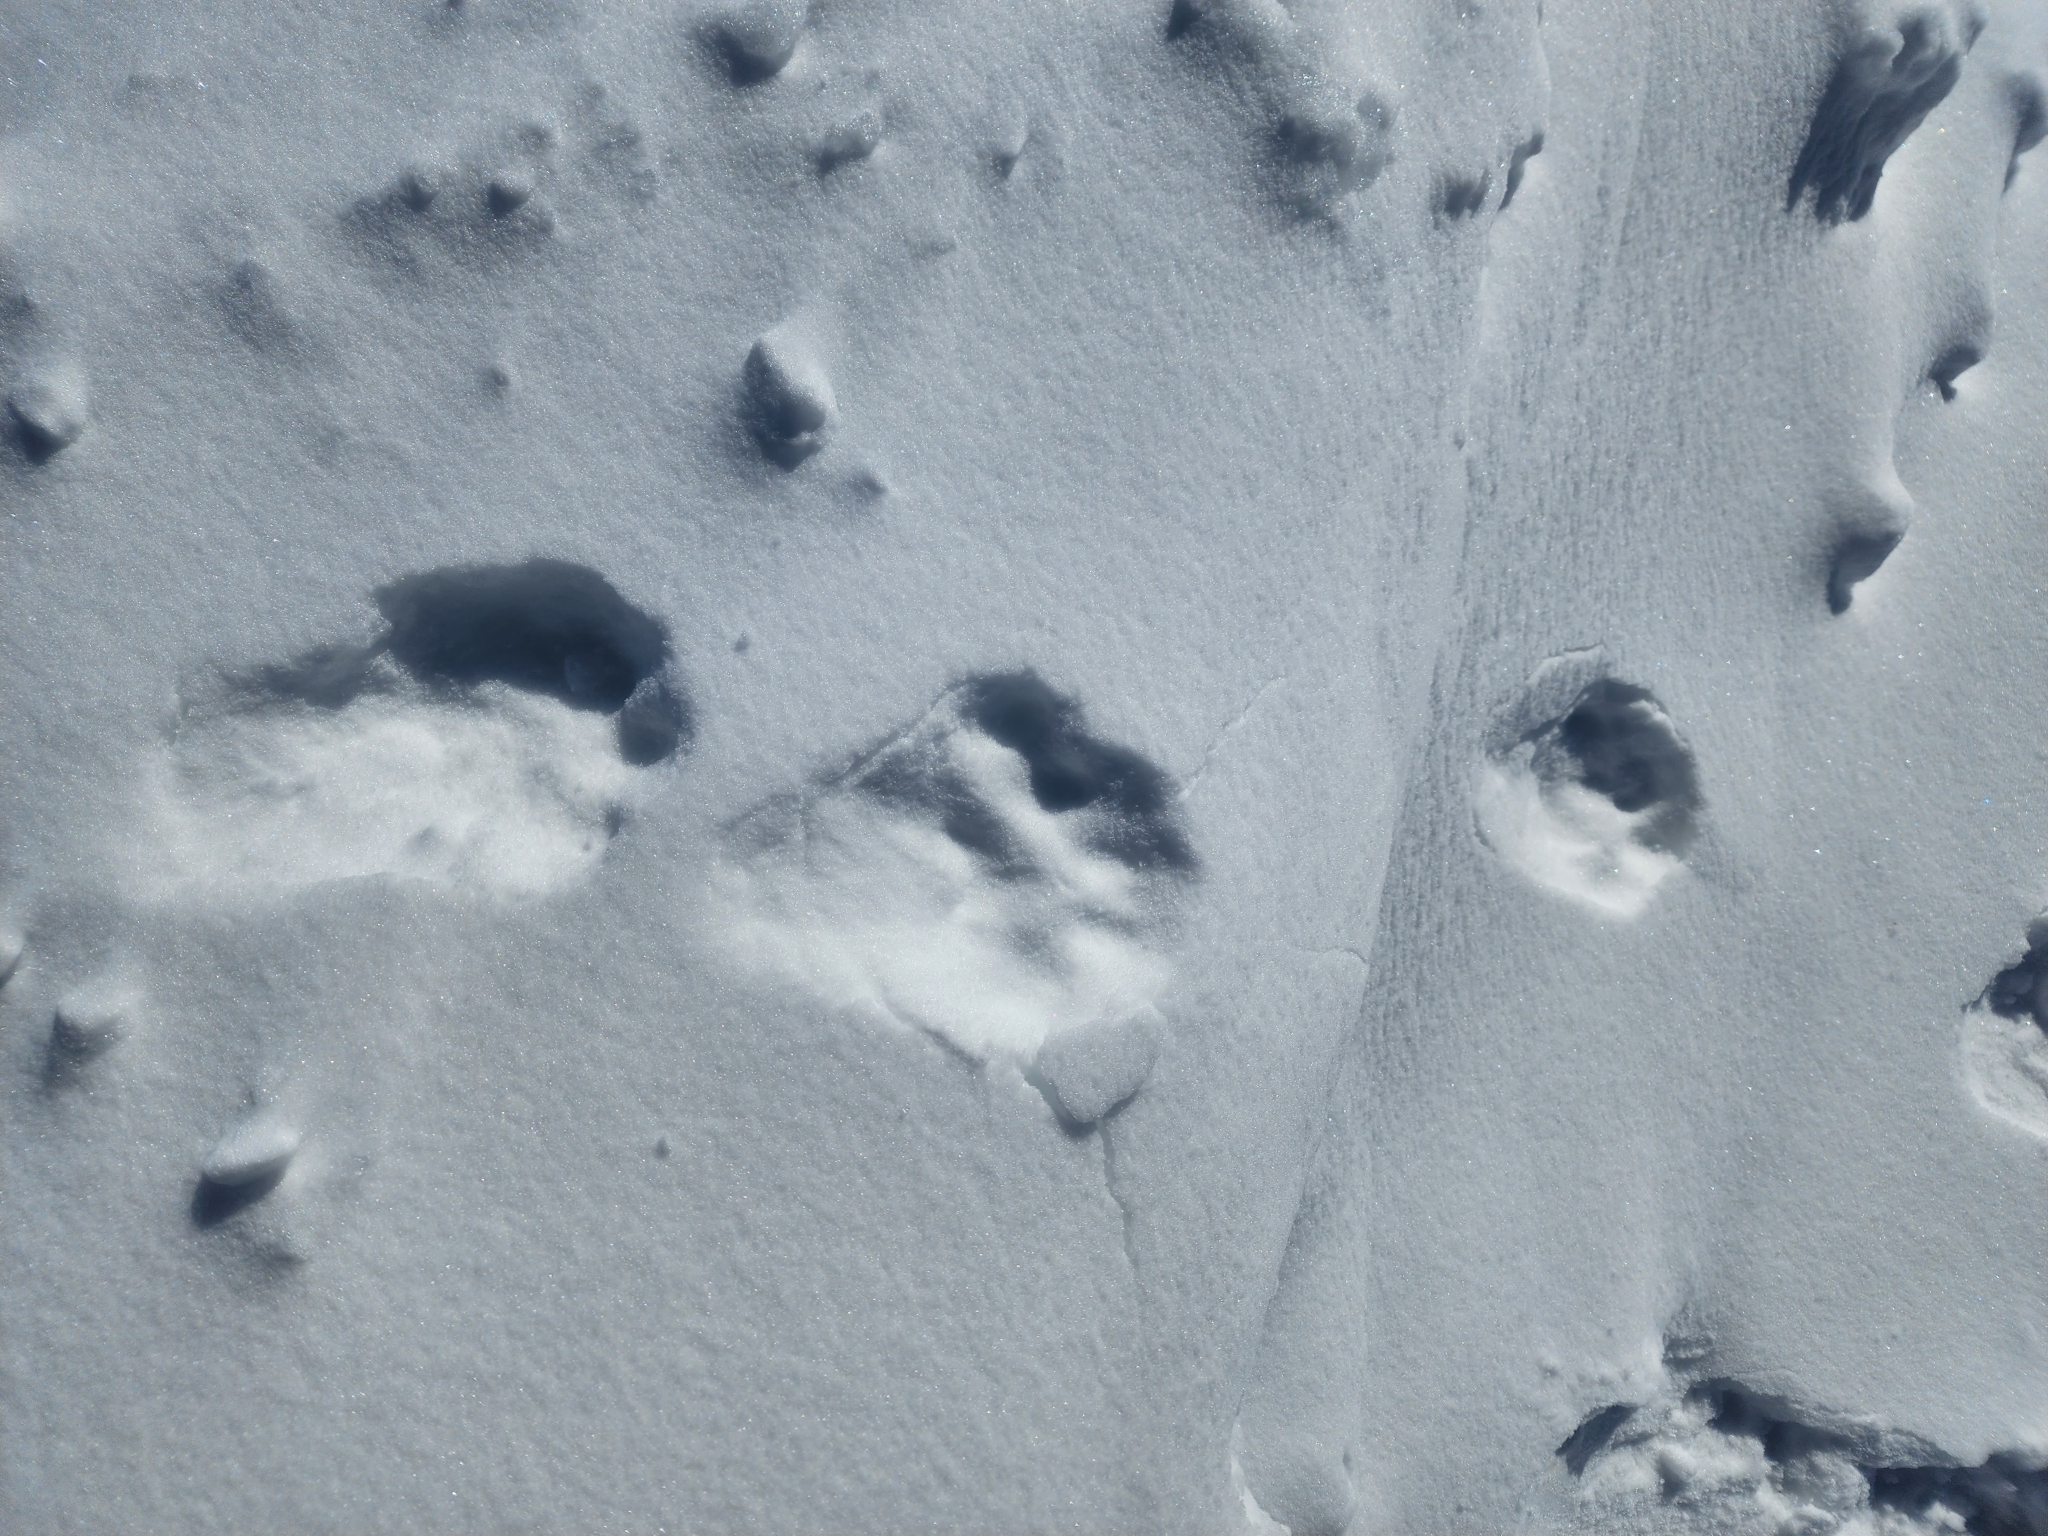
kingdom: Animalia
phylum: Chordata
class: Mammalia
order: Carnivora
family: Felidae
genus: Lynx
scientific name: Lynx canadensis
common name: Canadian lynx
